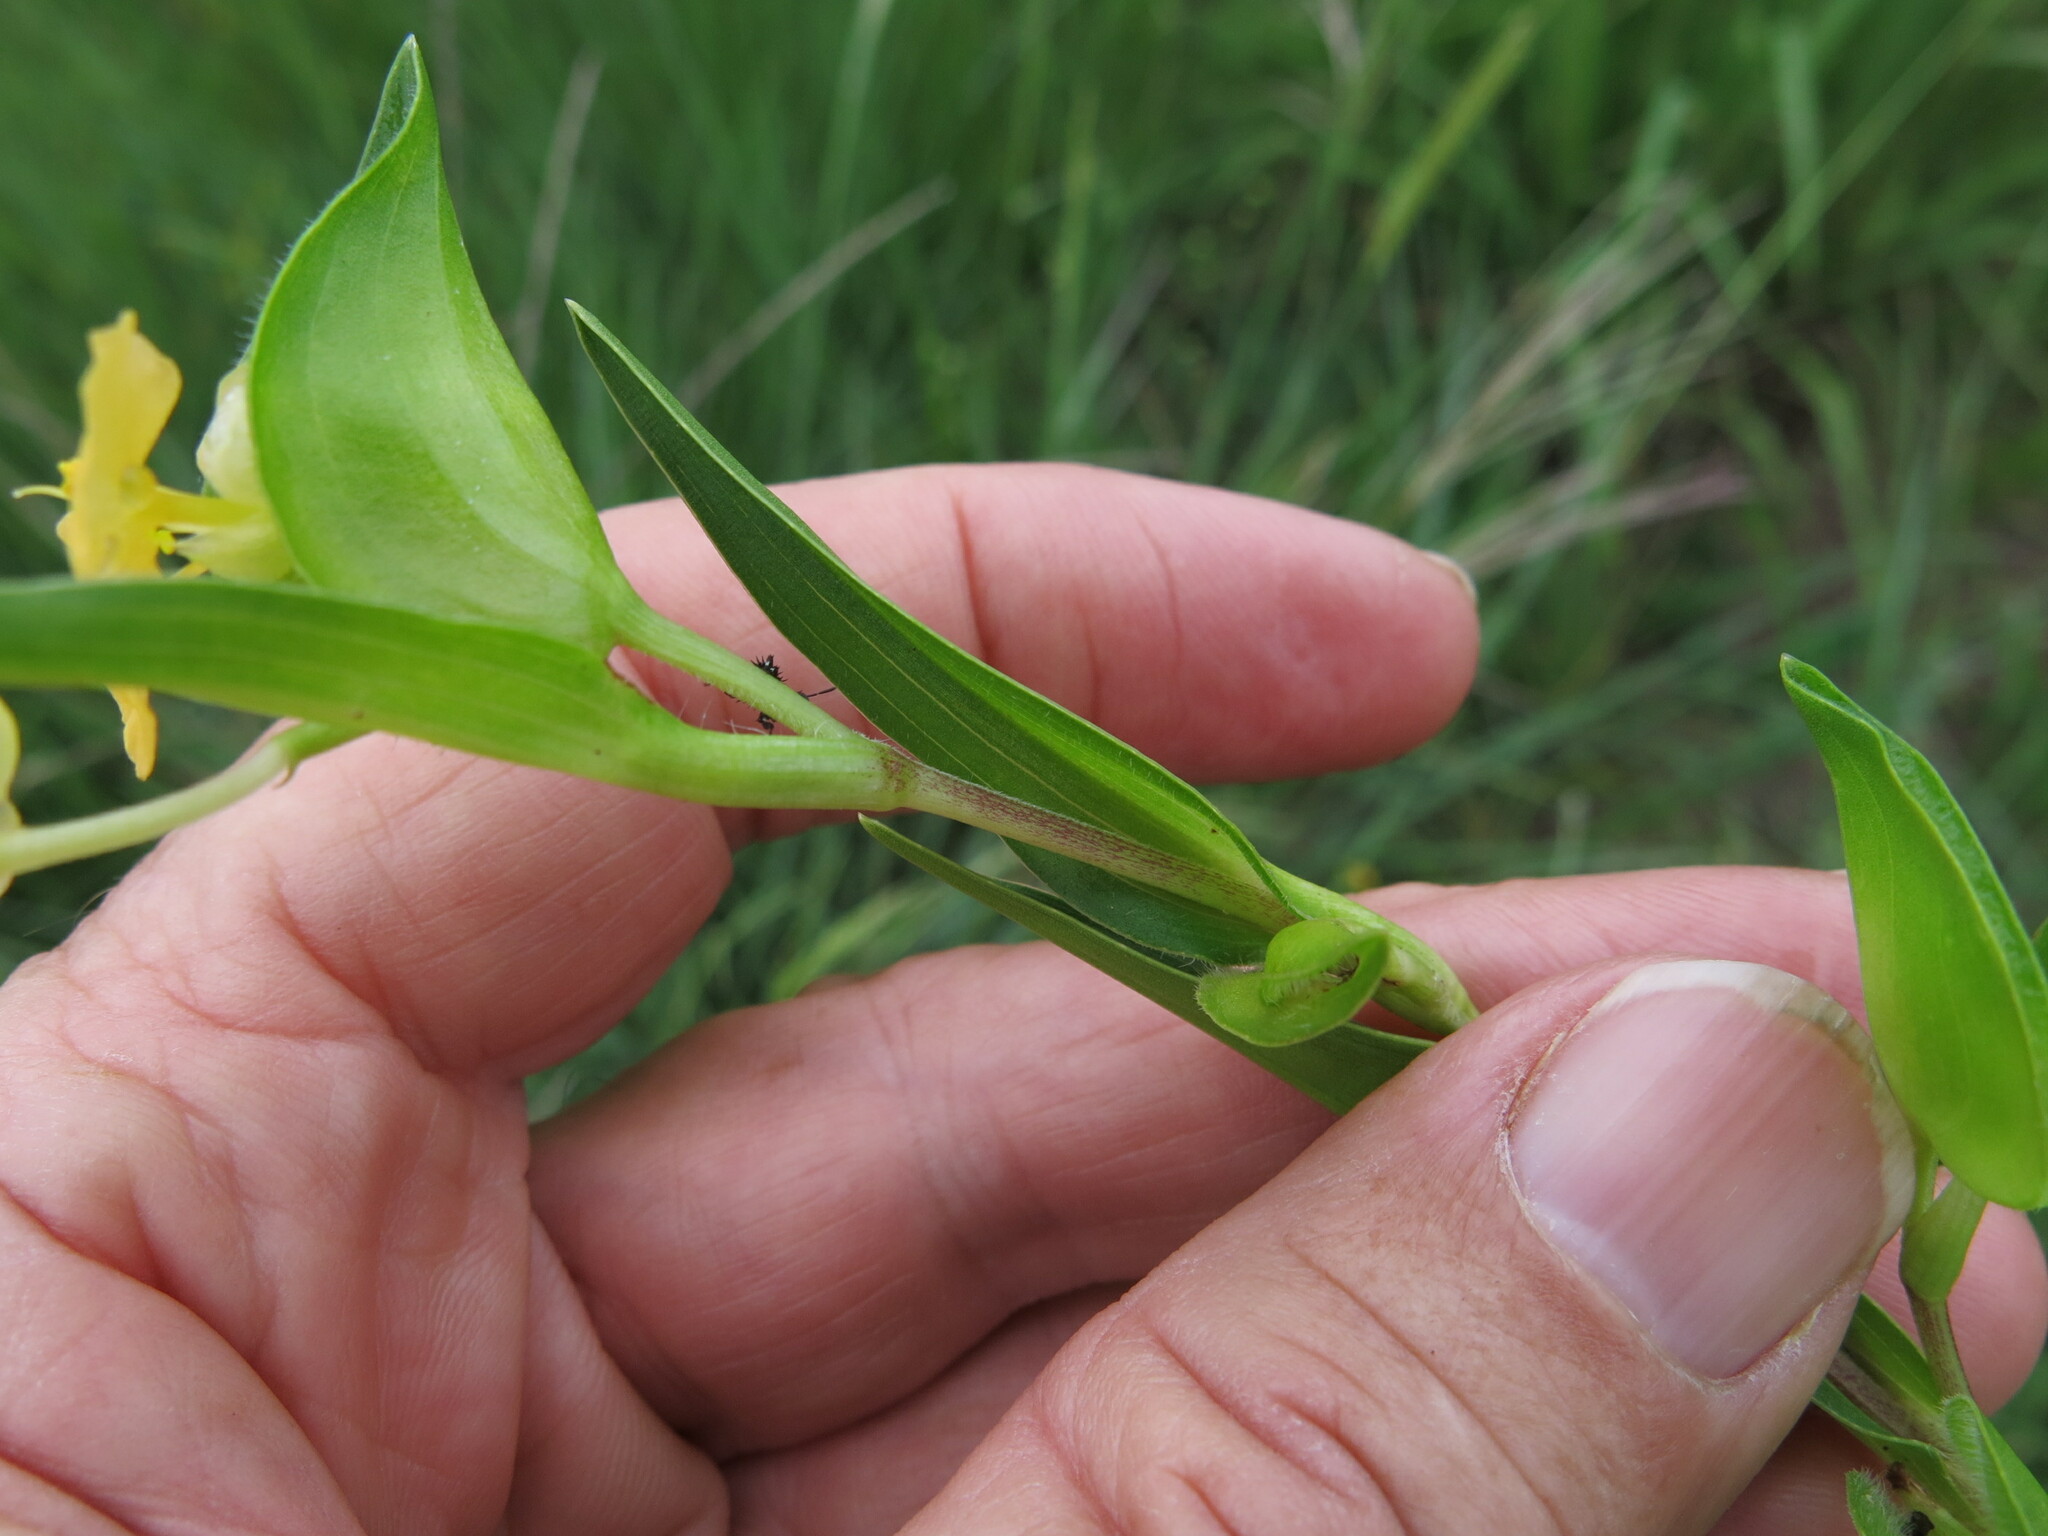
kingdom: Plantae
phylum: Tracheophyta
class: Liliopsida
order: Commelinales
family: Commelinaceae
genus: Commelina
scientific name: Commelina africana
